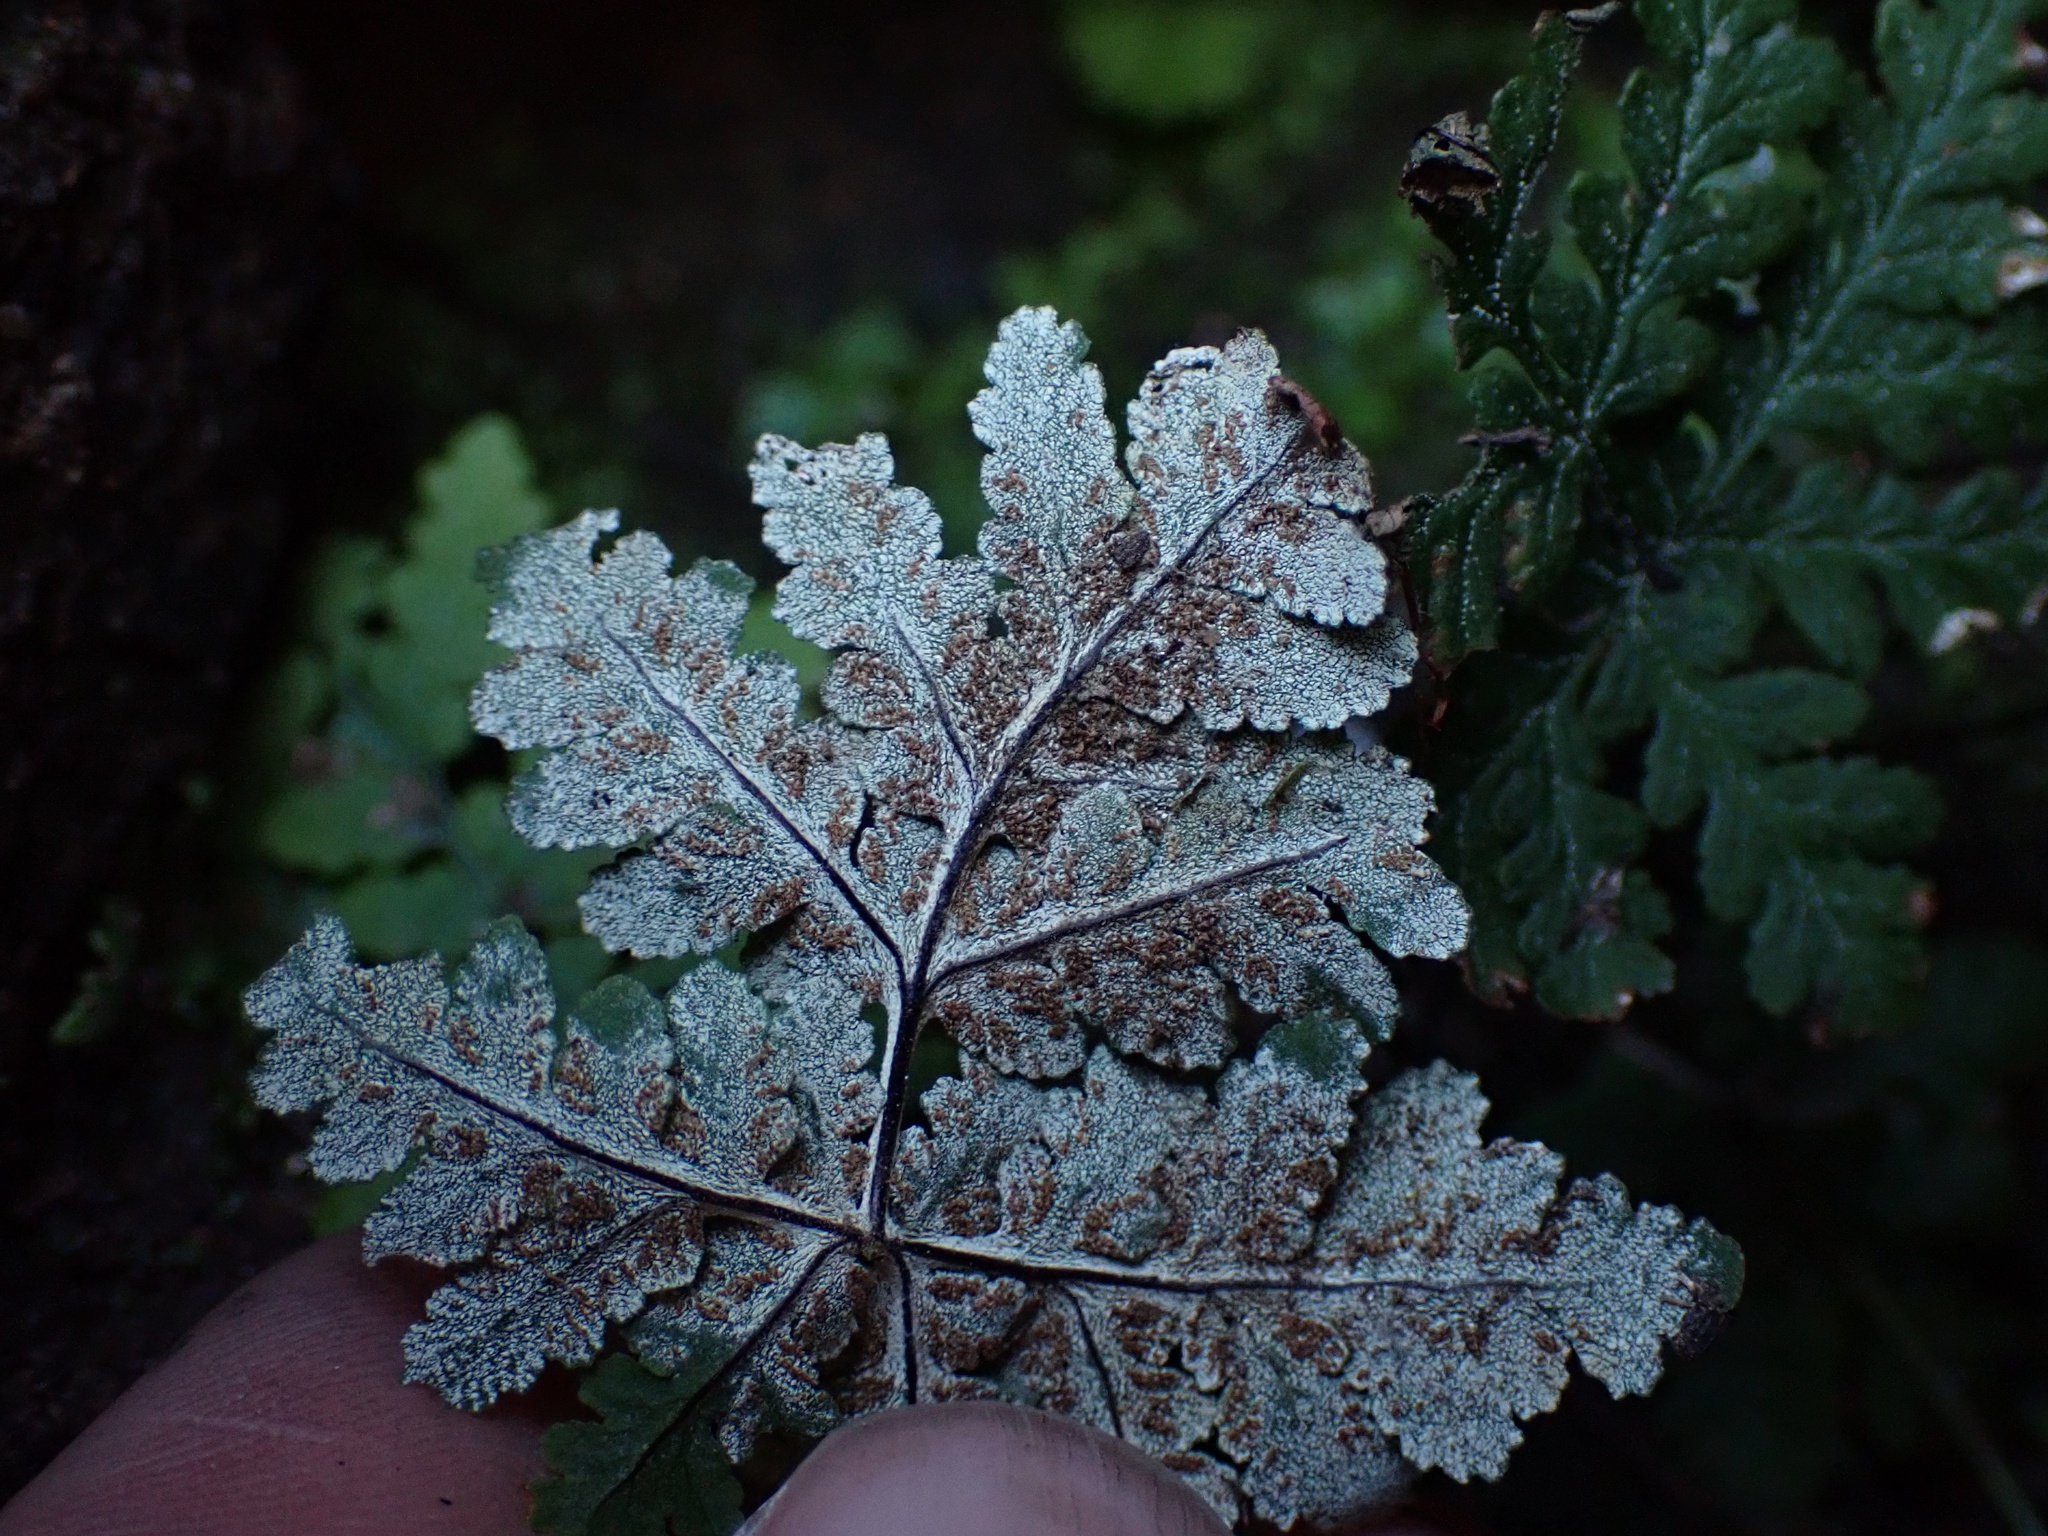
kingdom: Plantae
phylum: Tracheophyta
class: Polypodiopsida
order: Polypodiales
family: Pteridaceae
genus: Pentagramma
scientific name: Pentagramma rebmanii
